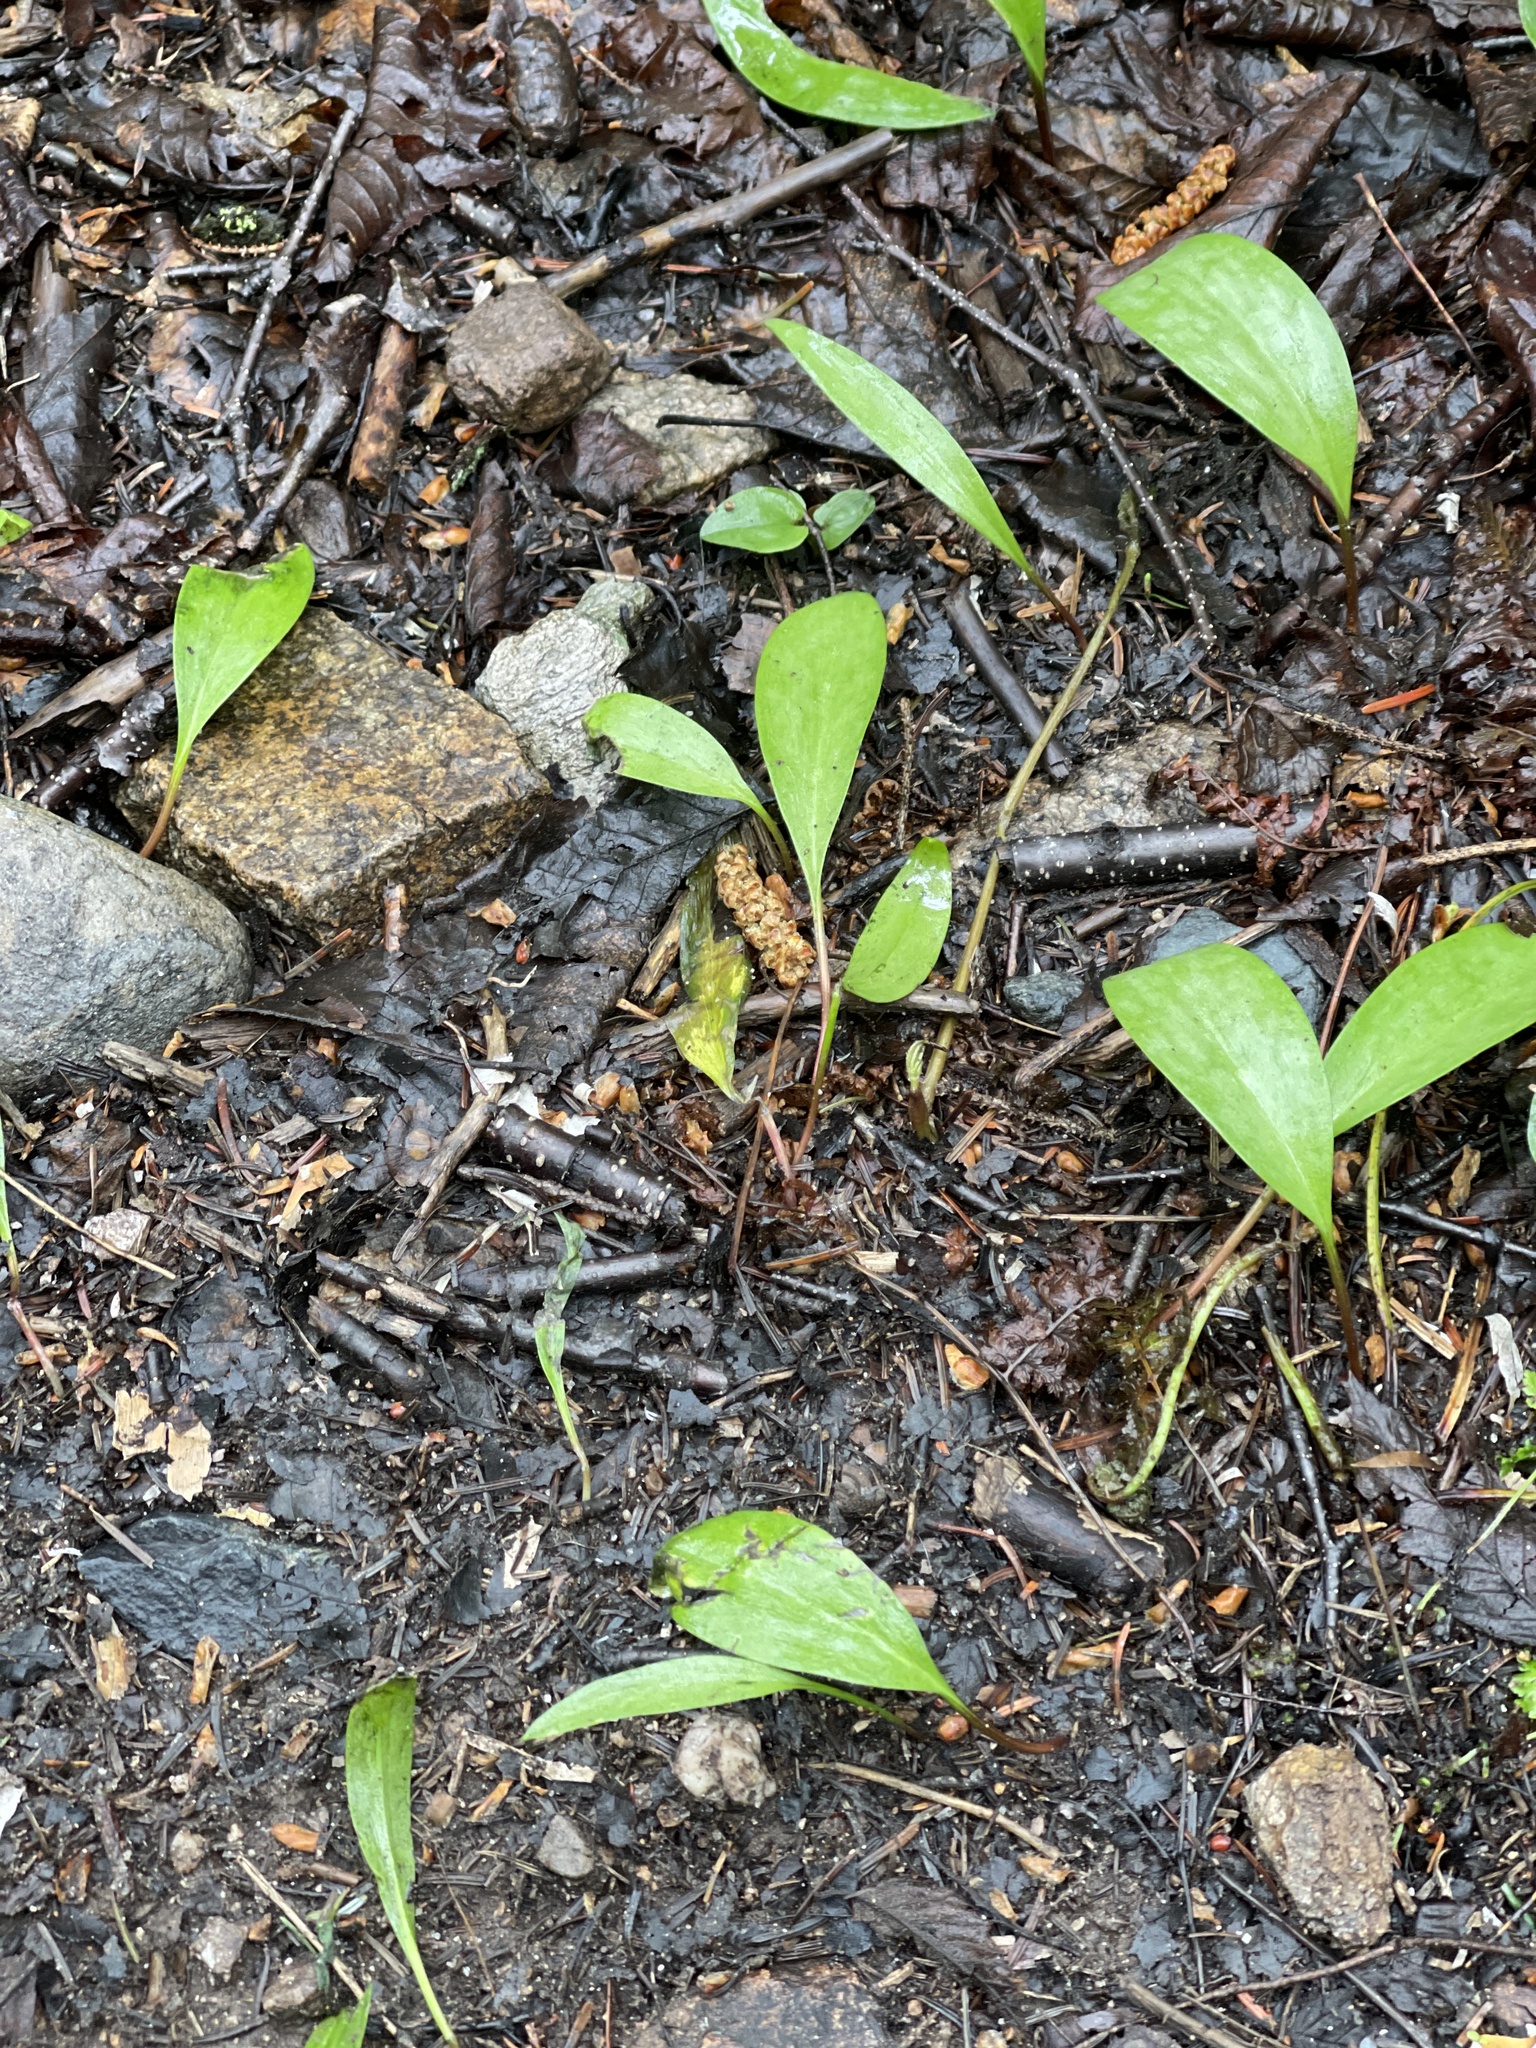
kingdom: Plantae
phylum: Tracheophyta
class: Liliopsida
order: Liliales
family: Liliaceae
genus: Erythronium
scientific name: Erythronium americanum
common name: Yellow adder's-tongue
